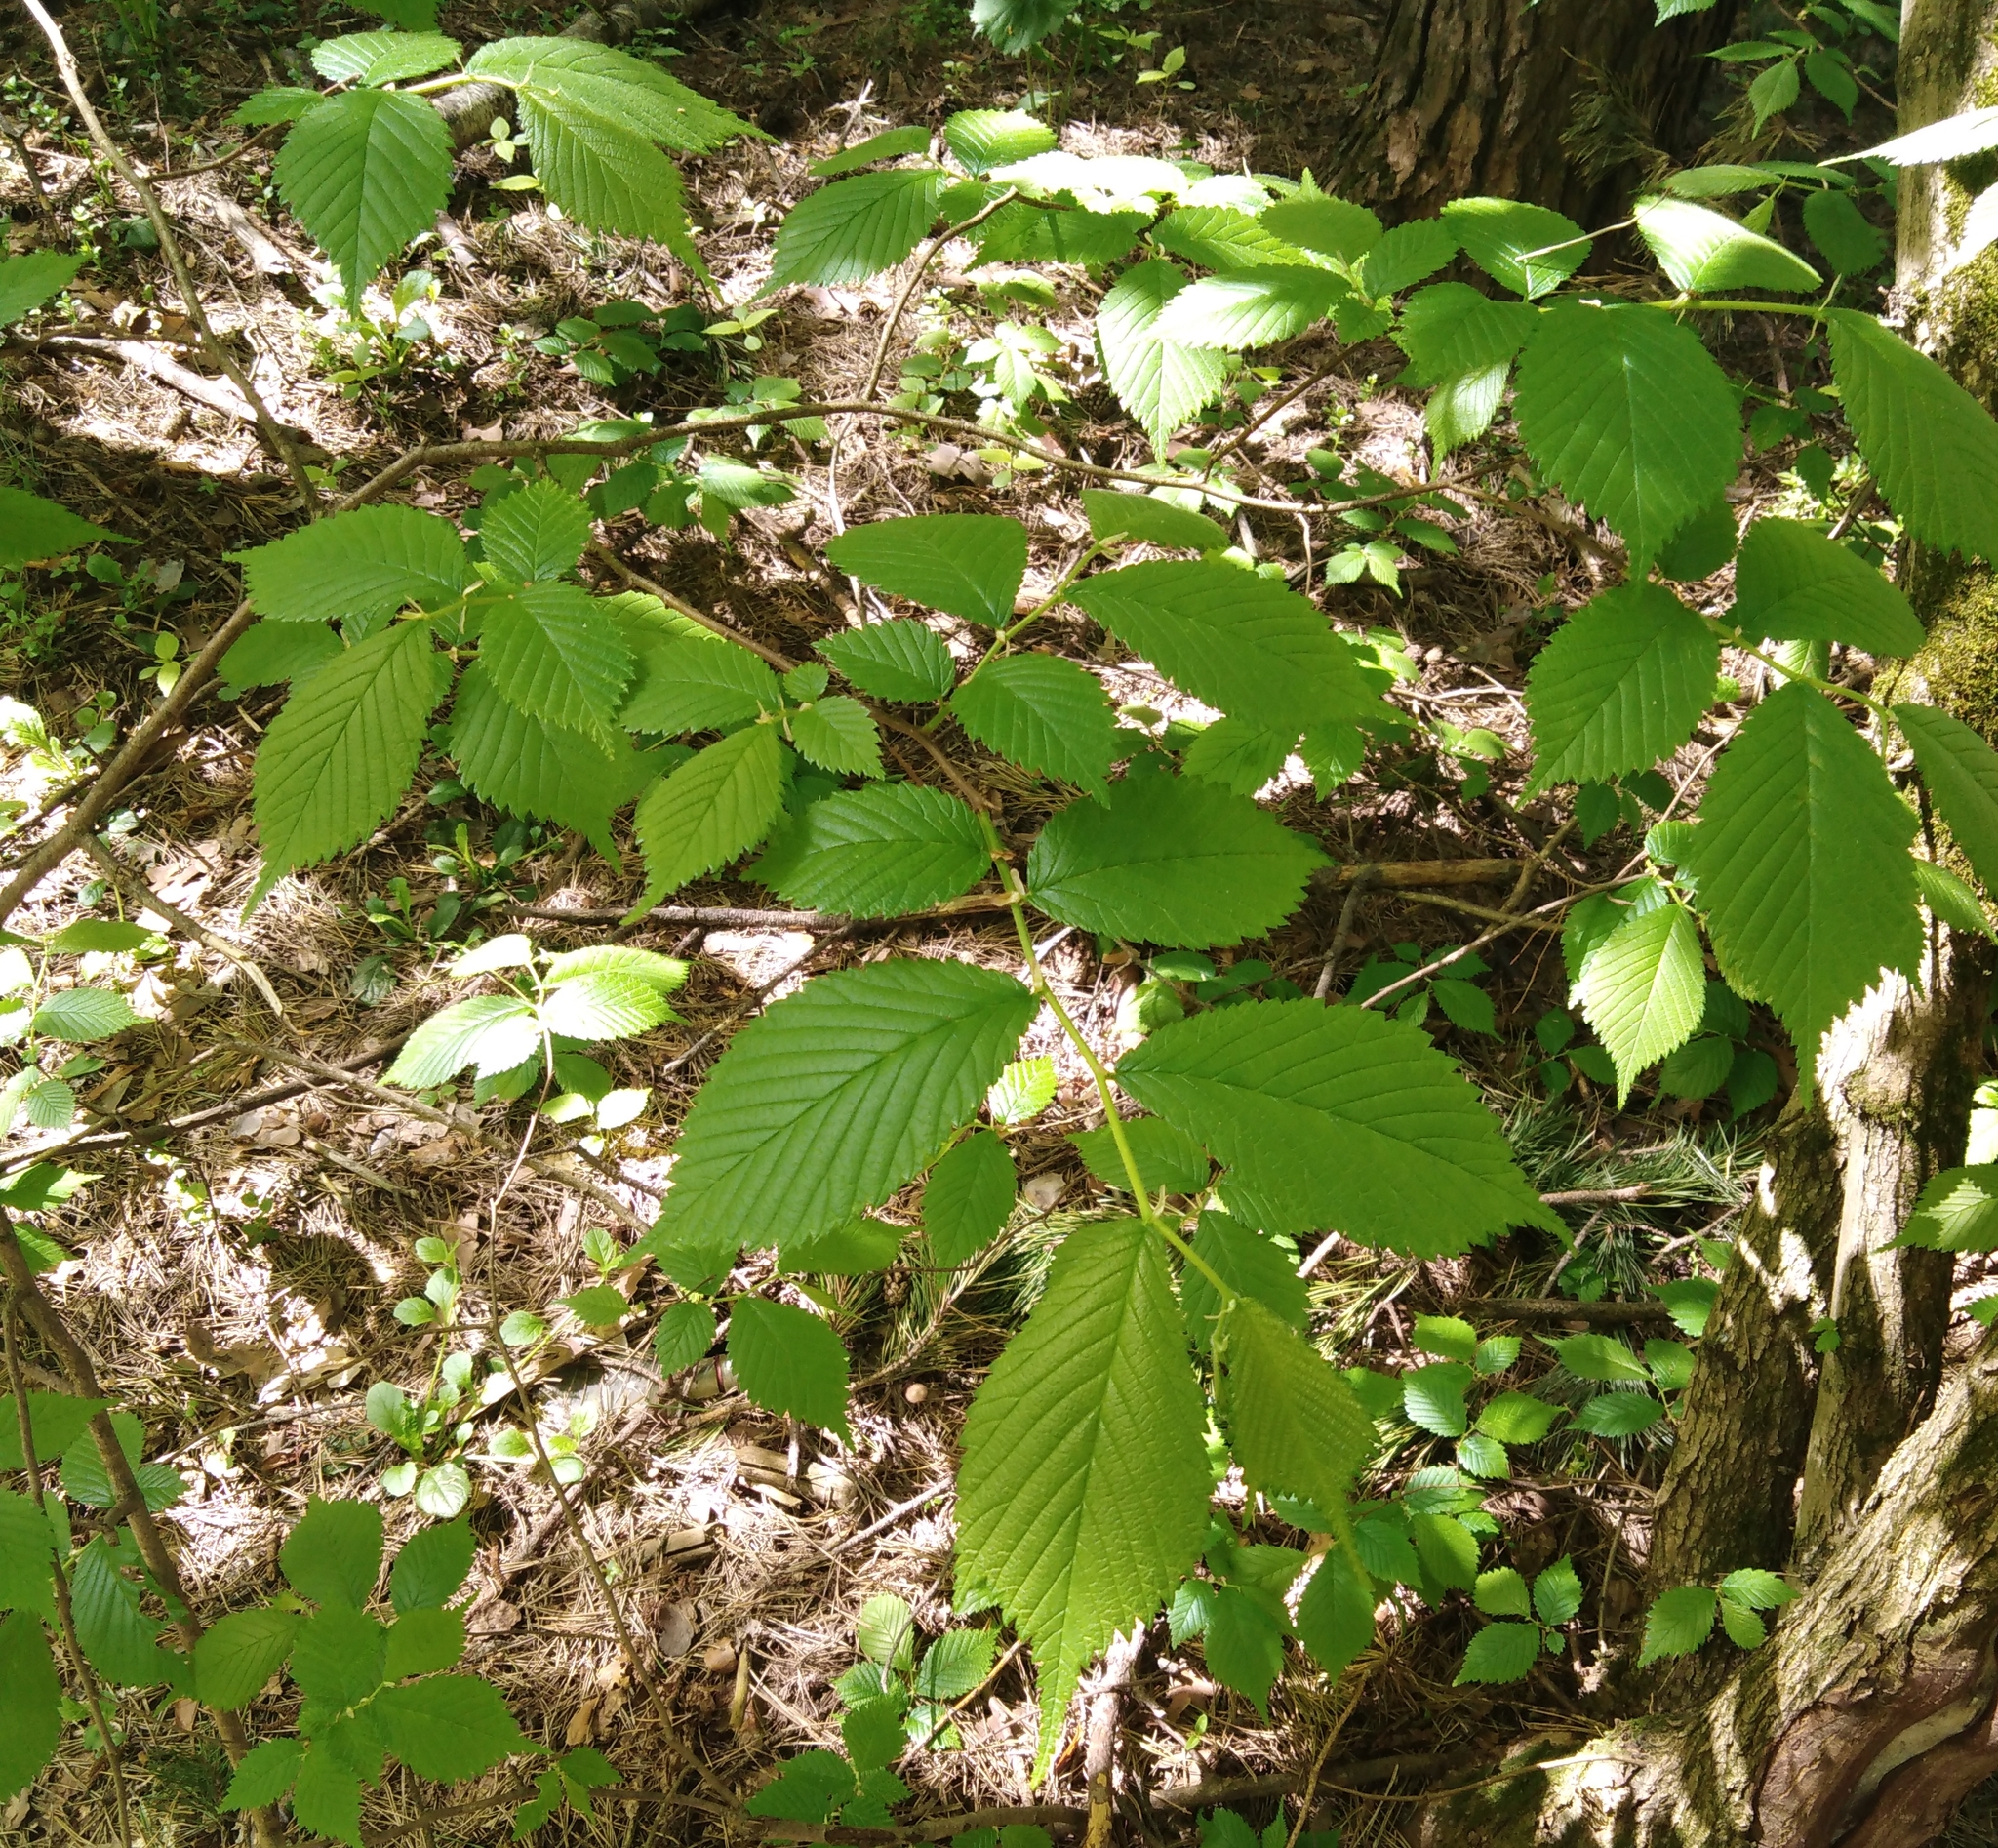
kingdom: Plantae
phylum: Tracheophyta
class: Magnoliopsida
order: Rosales
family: Ulmaceae
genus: Ulmus
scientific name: Ulmus glabra
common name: Wych elm
